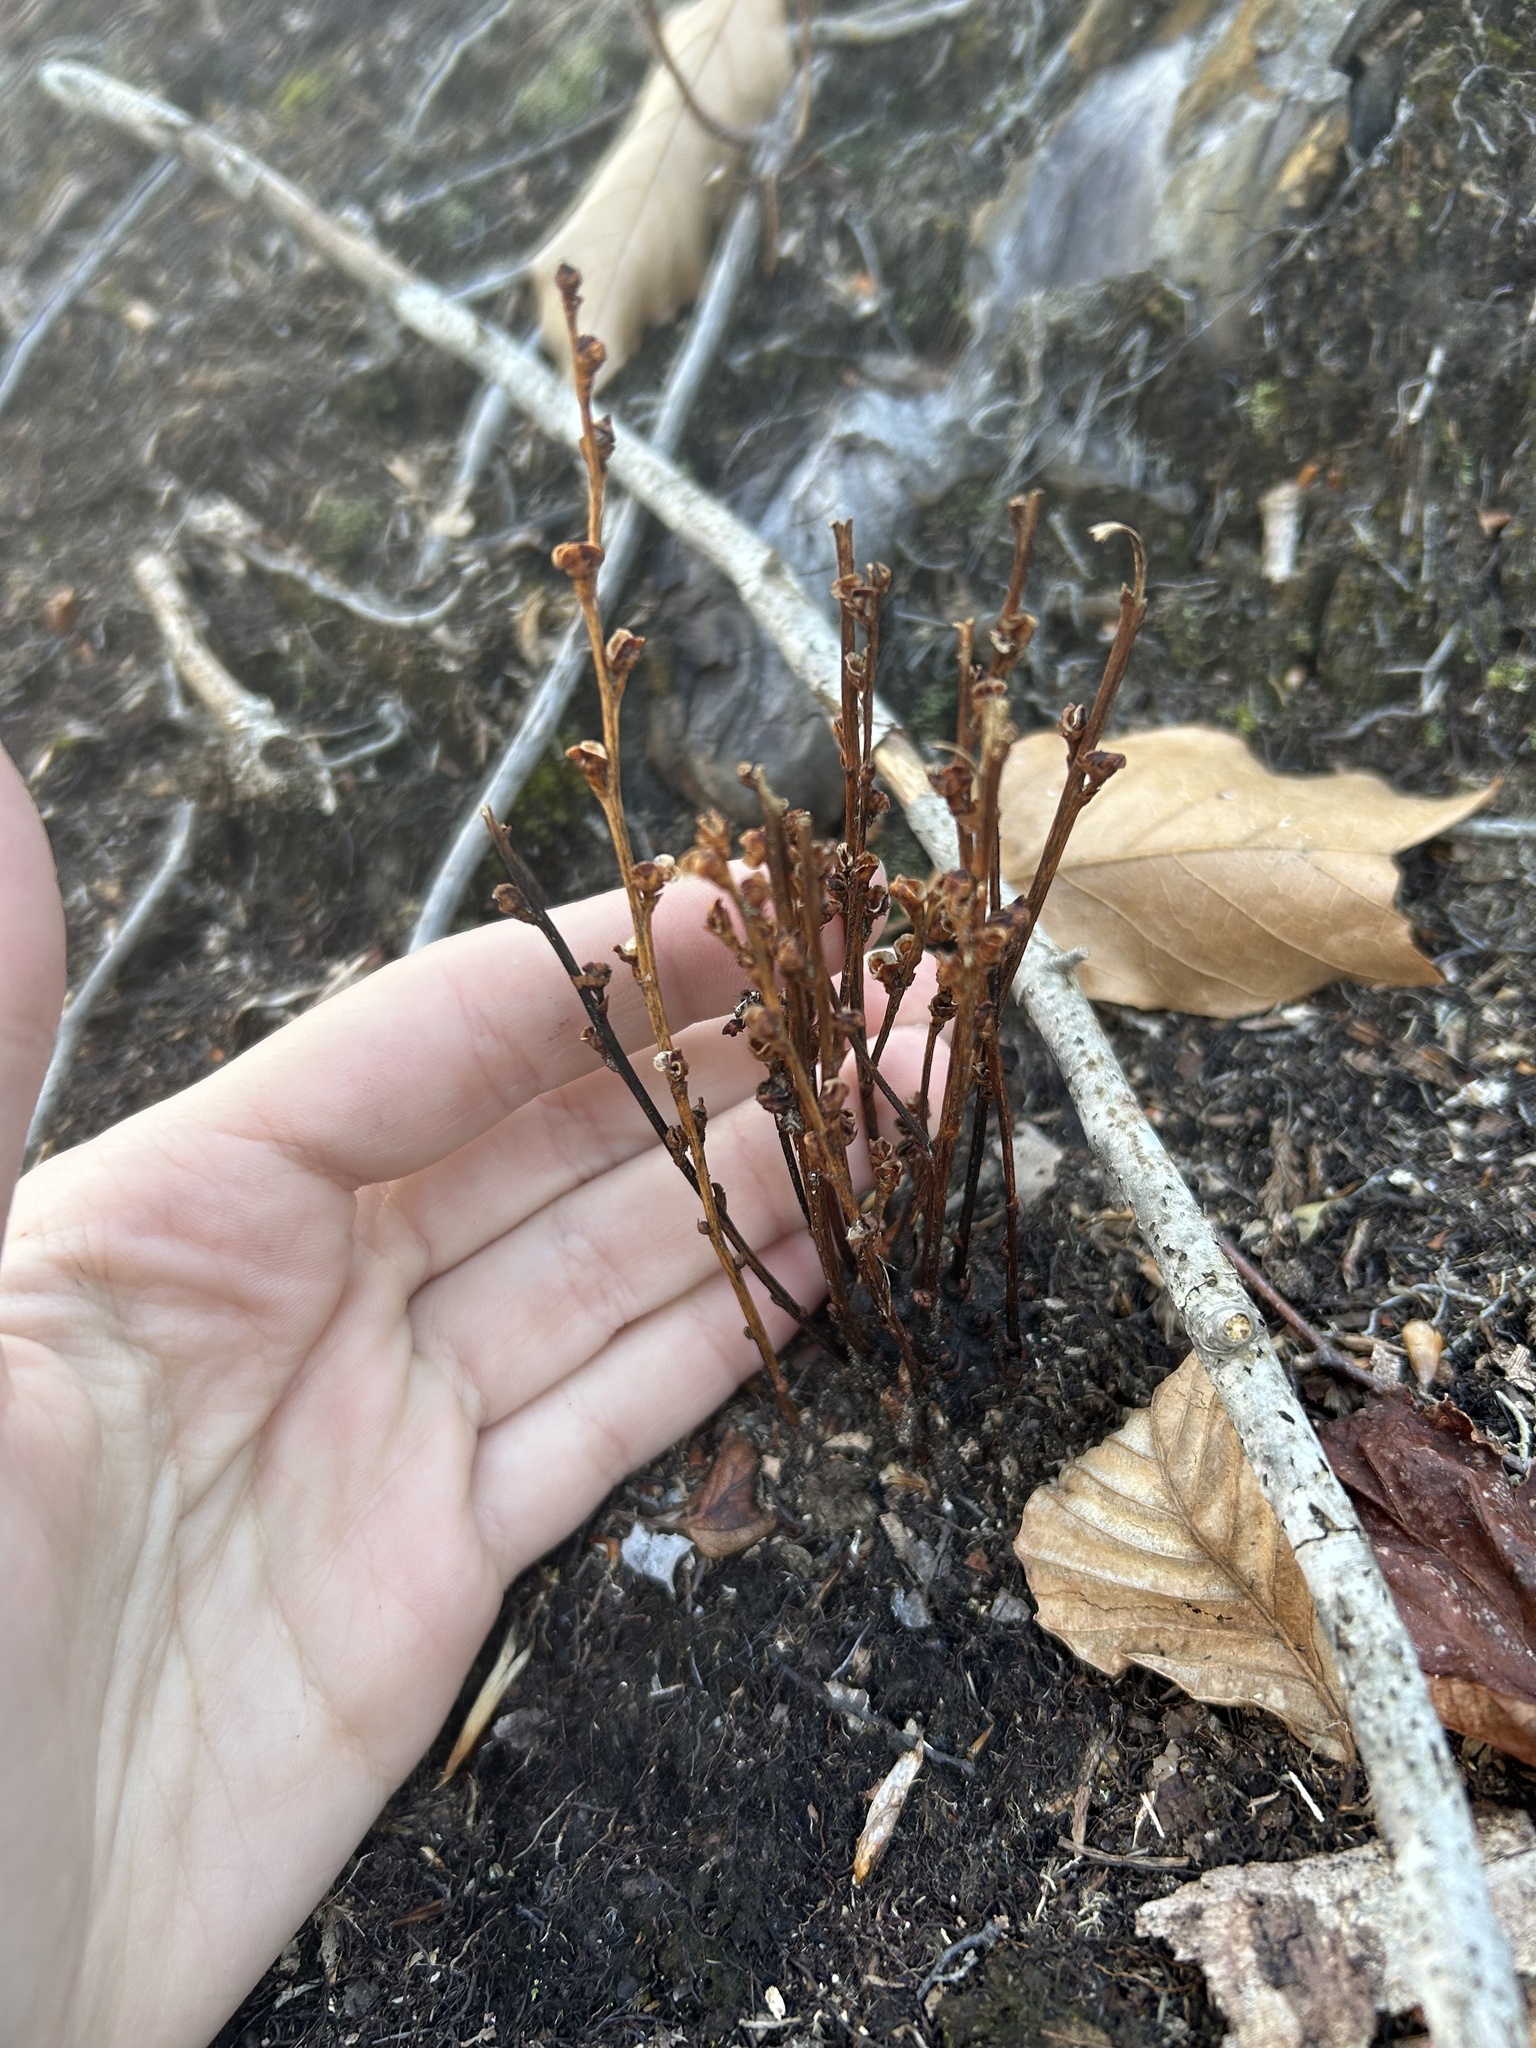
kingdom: Plantae
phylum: Tracheophyta
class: Magnoliopsida
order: Lamiales
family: Orobanchaceae
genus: Epifagus
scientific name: Epifagus virginiana
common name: Beechdrops
